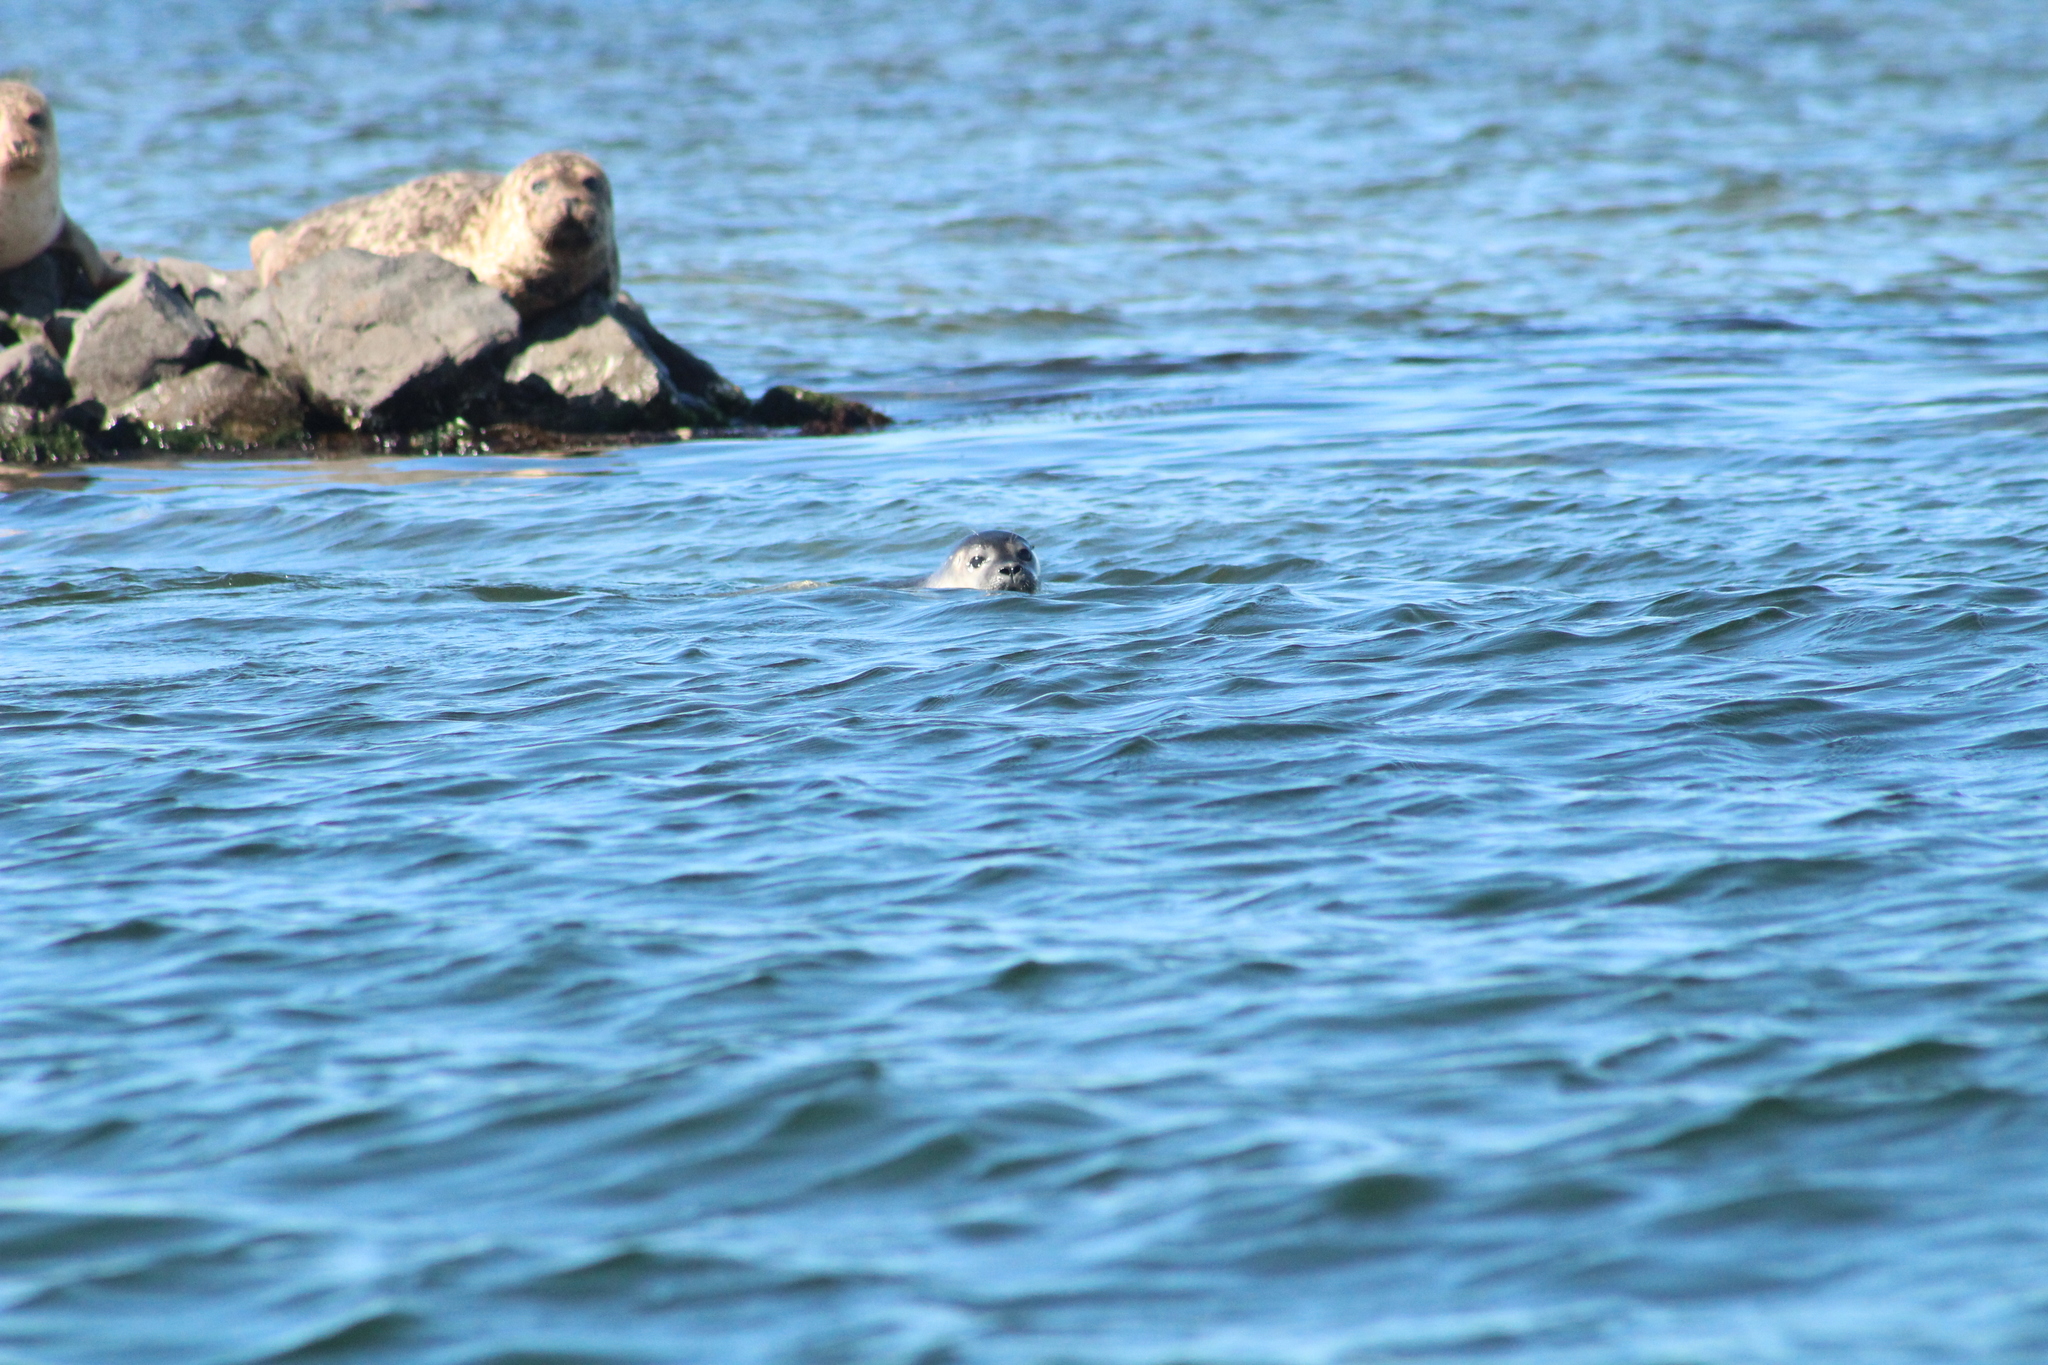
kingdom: Animalia
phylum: Chordata
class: Mammalia
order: Carnivora
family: Phocidae
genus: Phoca
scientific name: Phoca vitulina
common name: Harbor seal
